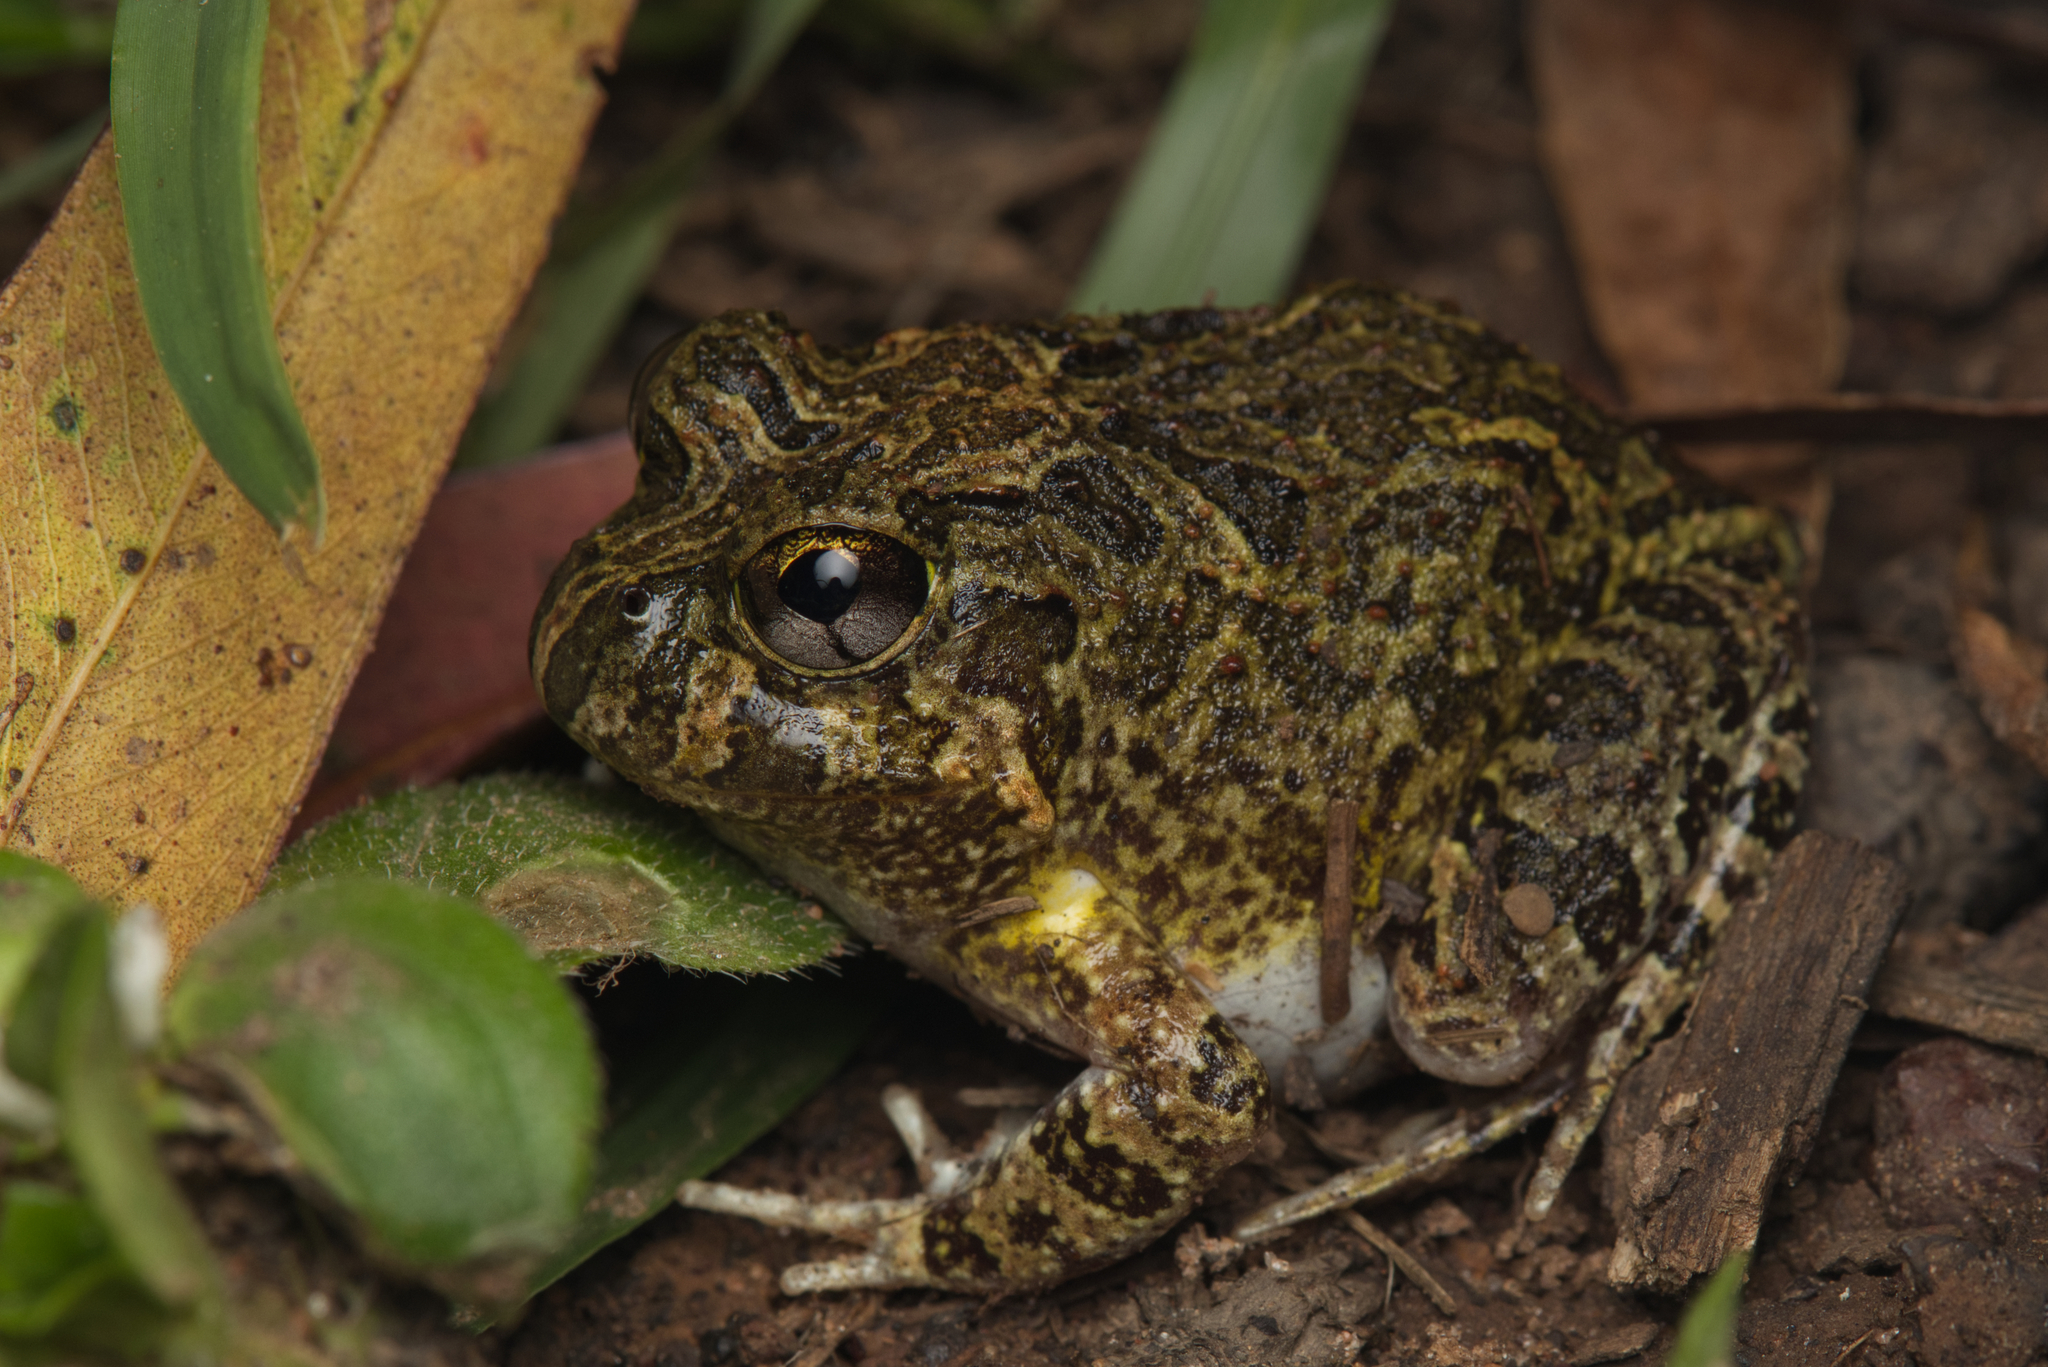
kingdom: Animalia
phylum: Chordata
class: Amphibia
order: Anura
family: Limnodynastidae
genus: Platyplectrum
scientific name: Platyplectrum ornatum
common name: Ornate burrowing frog
